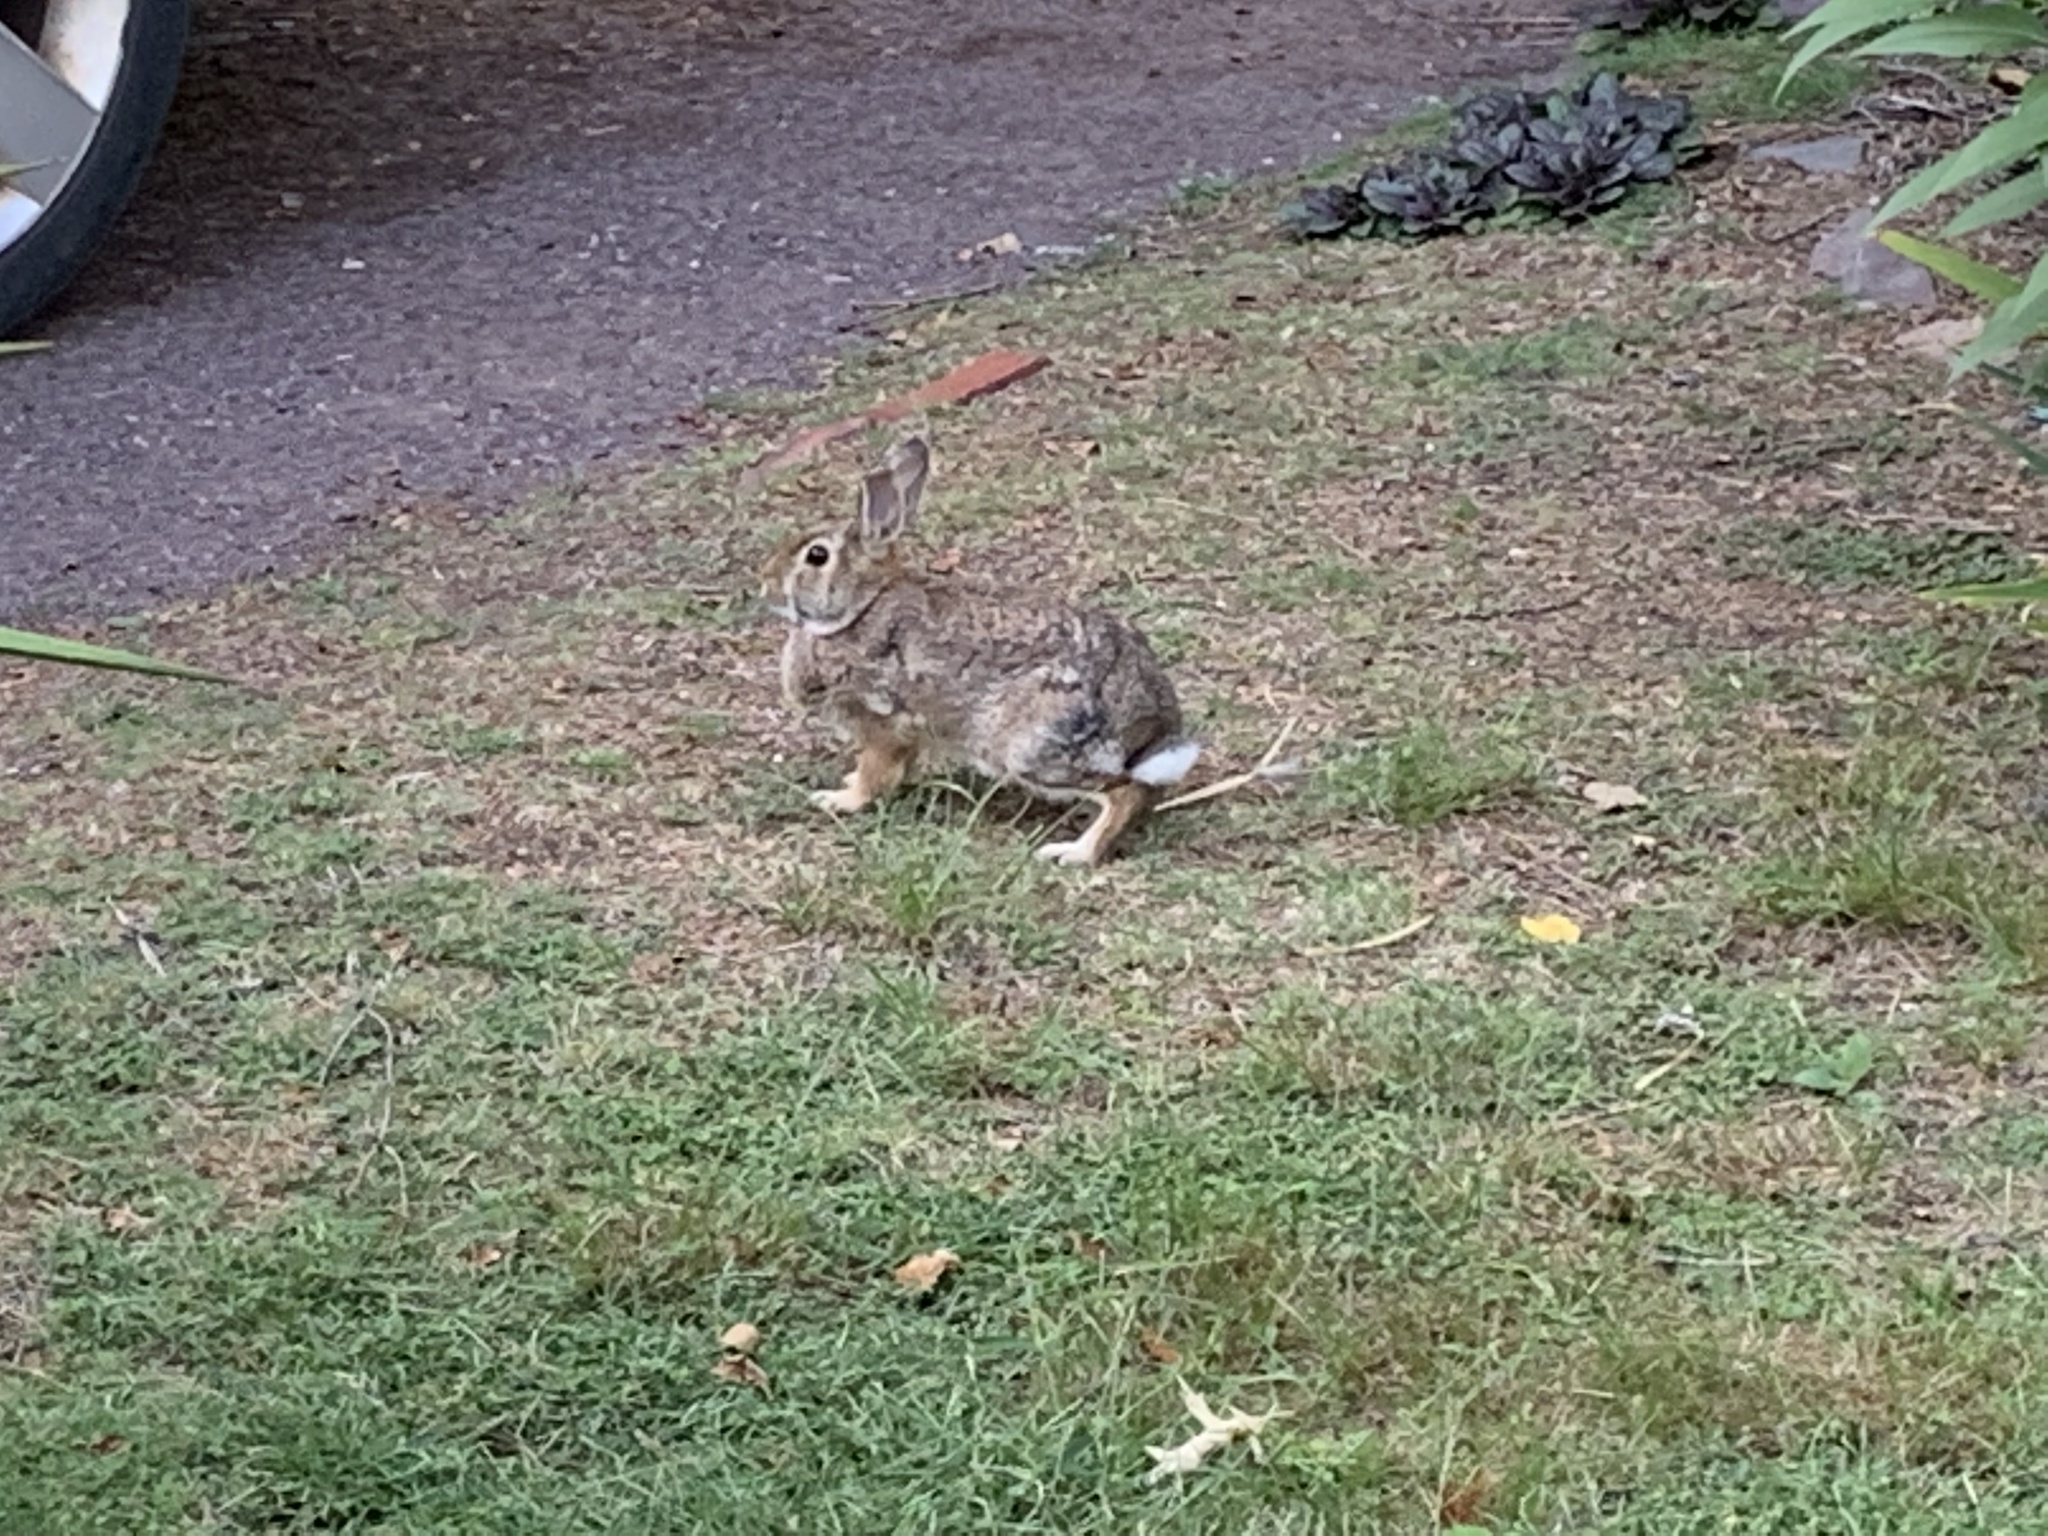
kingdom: Animalia
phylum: Chordata
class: Mammalia
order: Lagomorpha
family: Leporidae
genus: Sylvilagus
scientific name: Sylvilagus floridanus
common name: Eastern cottontail
